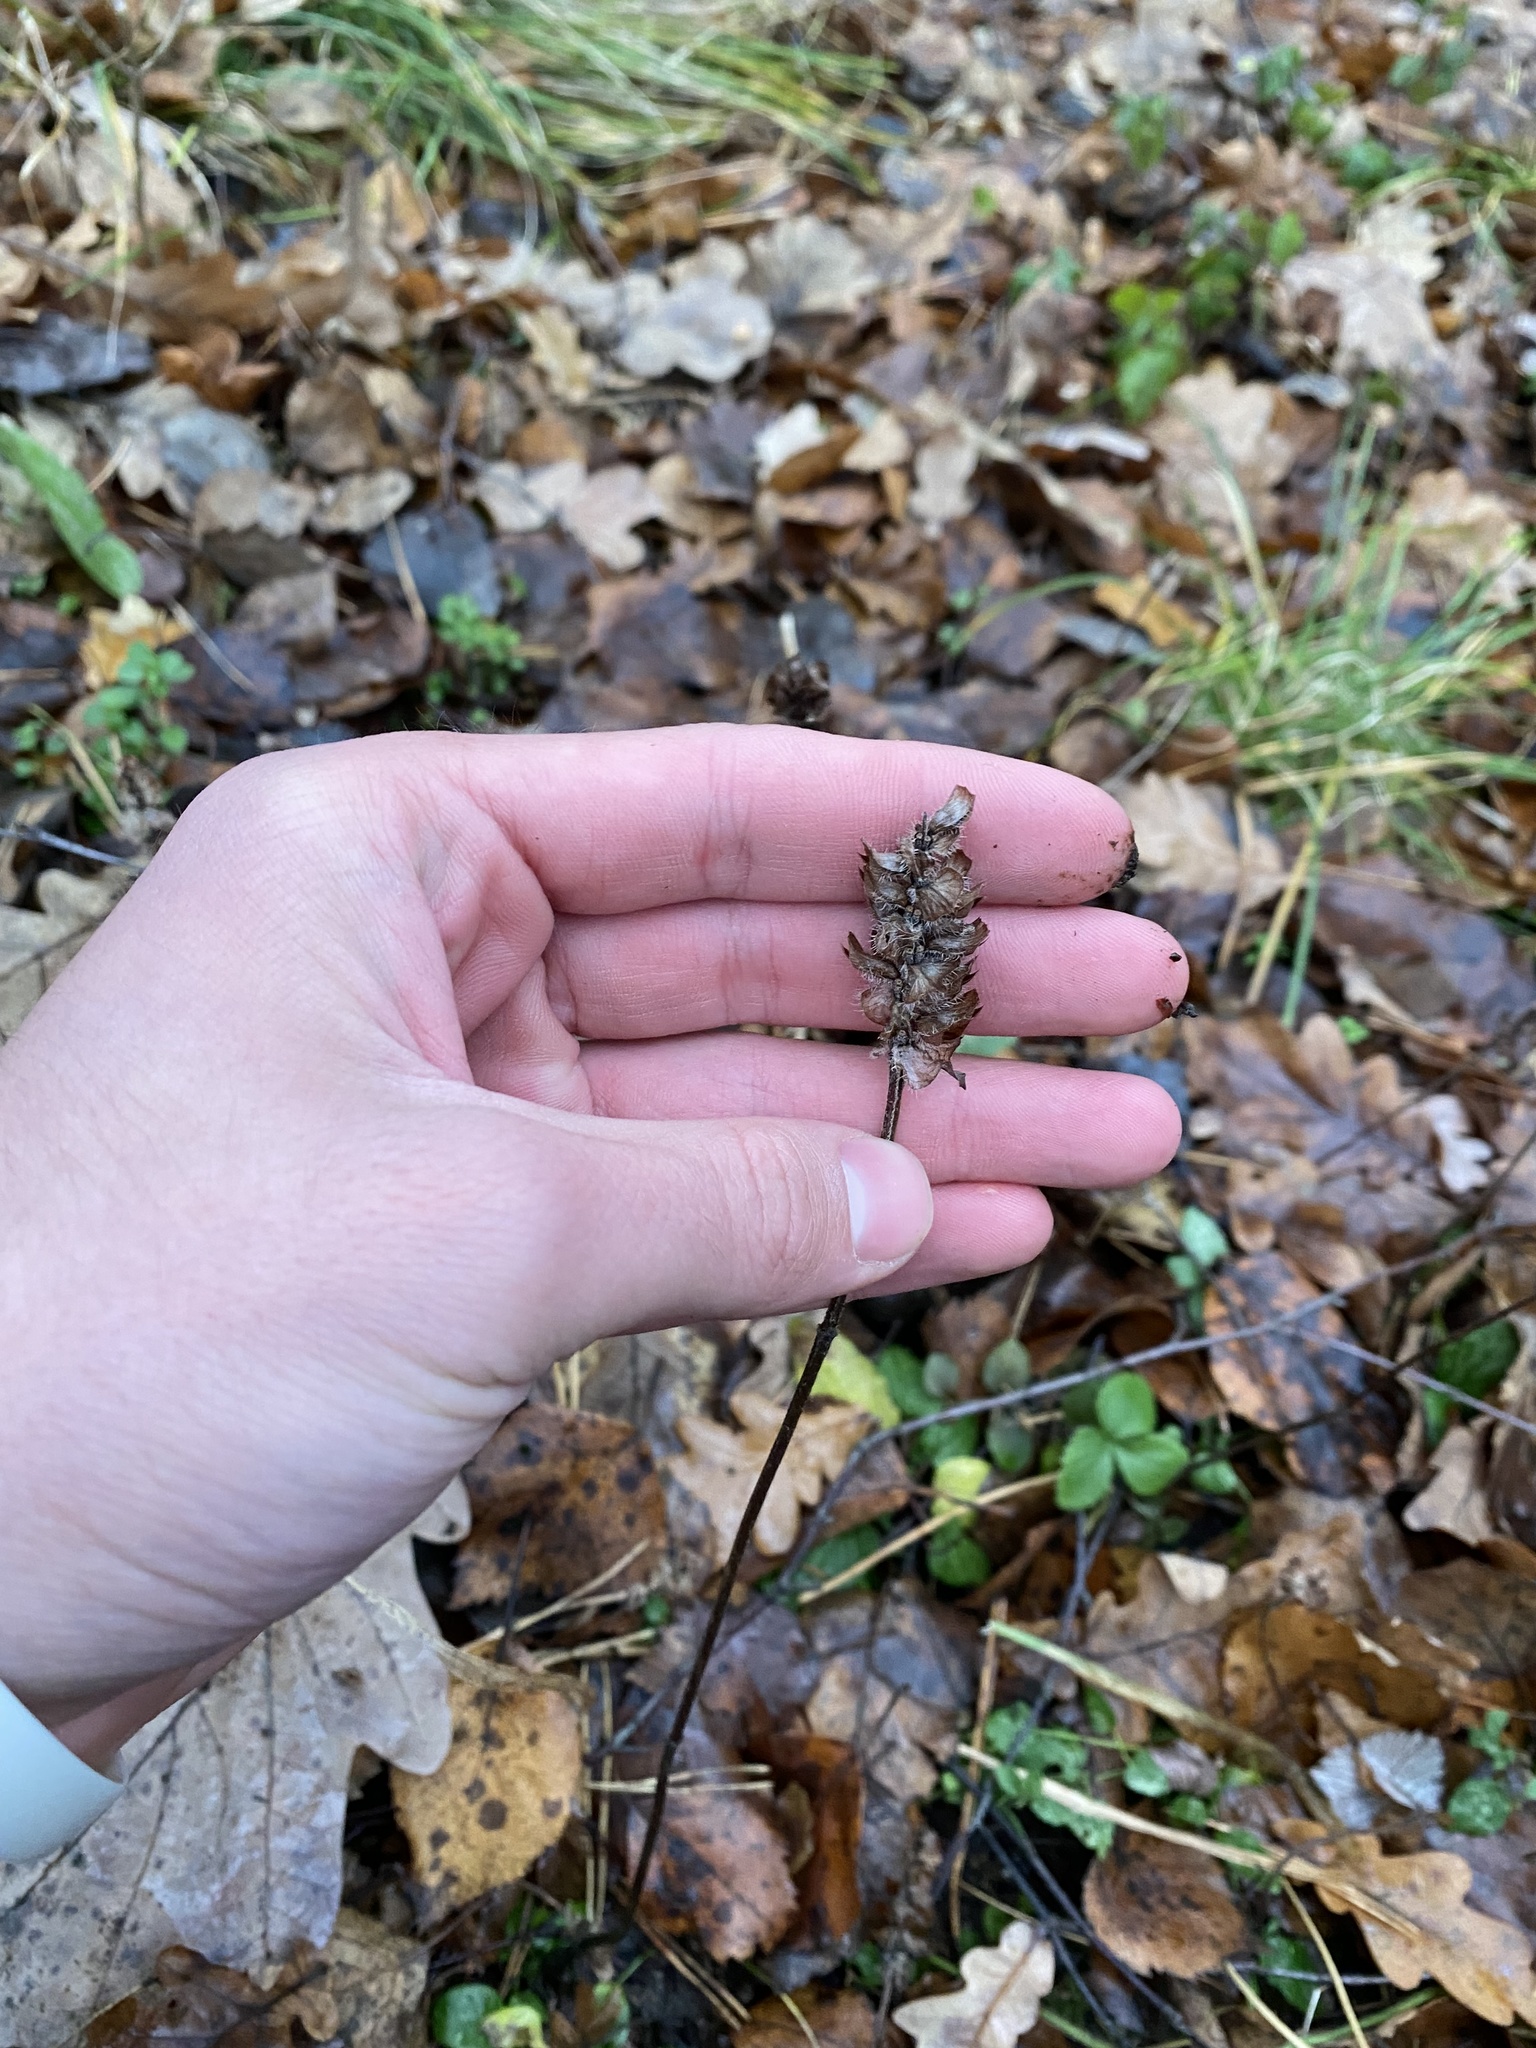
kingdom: Plantae
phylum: Tracheophyta
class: Magnoliopsida
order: Lamiales
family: Lamiaceae
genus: Prunella
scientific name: Prunella vulgaris
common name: Heal-all
